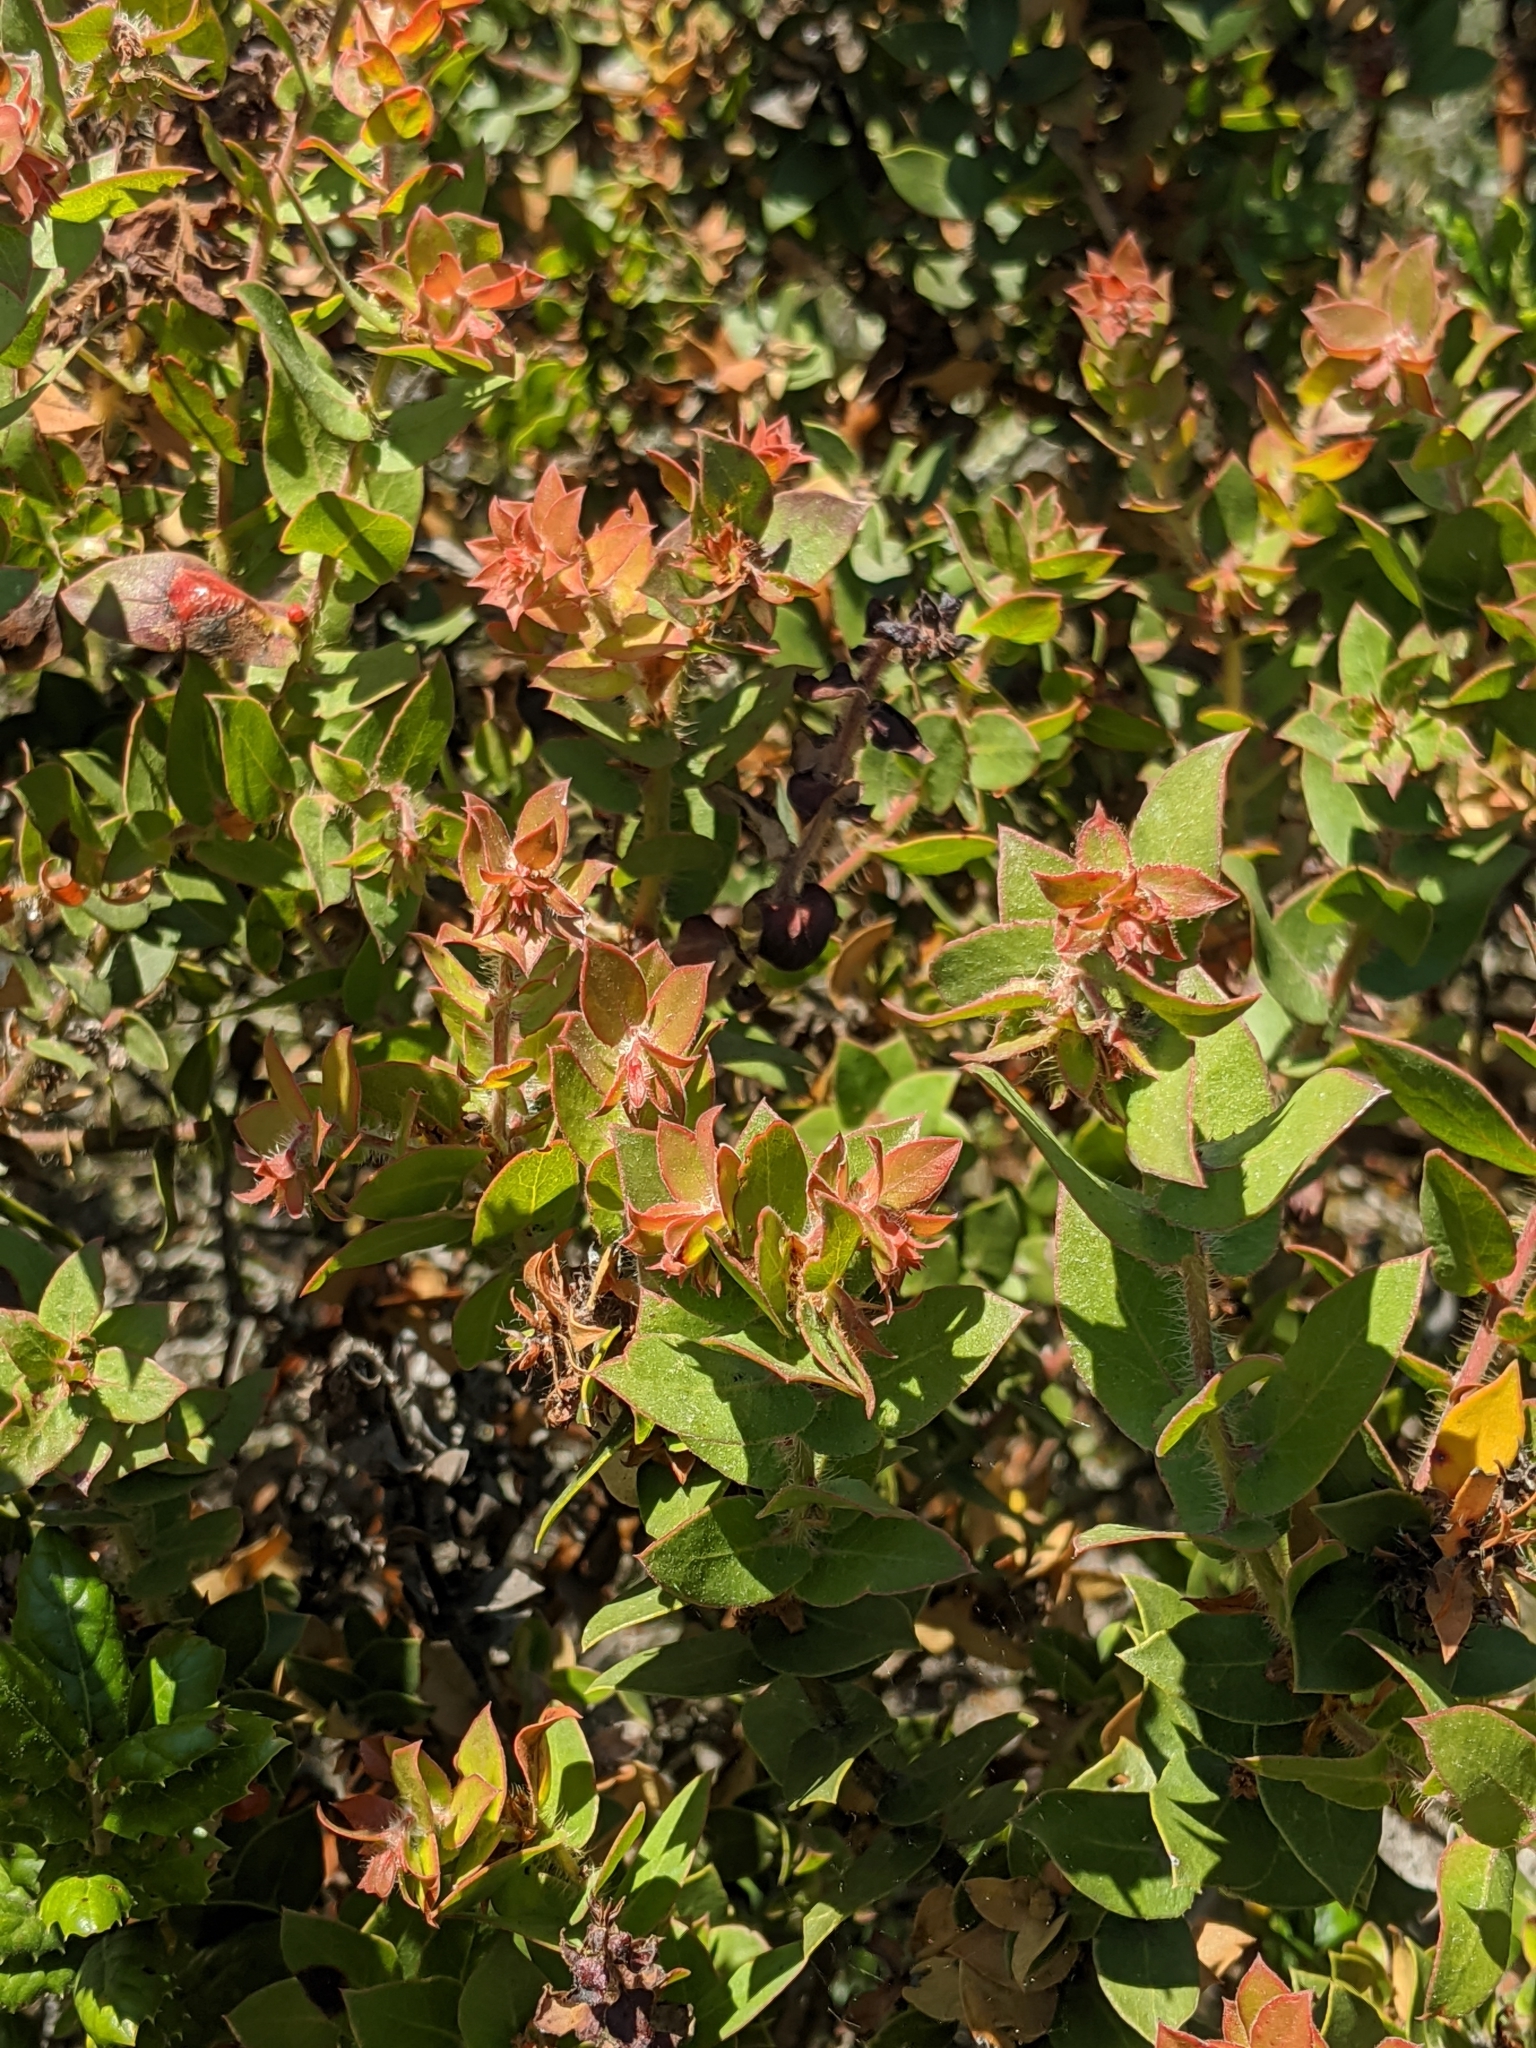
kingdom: Plantae
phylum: Tracheophyta
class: Magnoliopsida
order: Ericales
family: Ericaceae
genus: Arctostaphylos
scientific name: Arctostaphylos purissima
